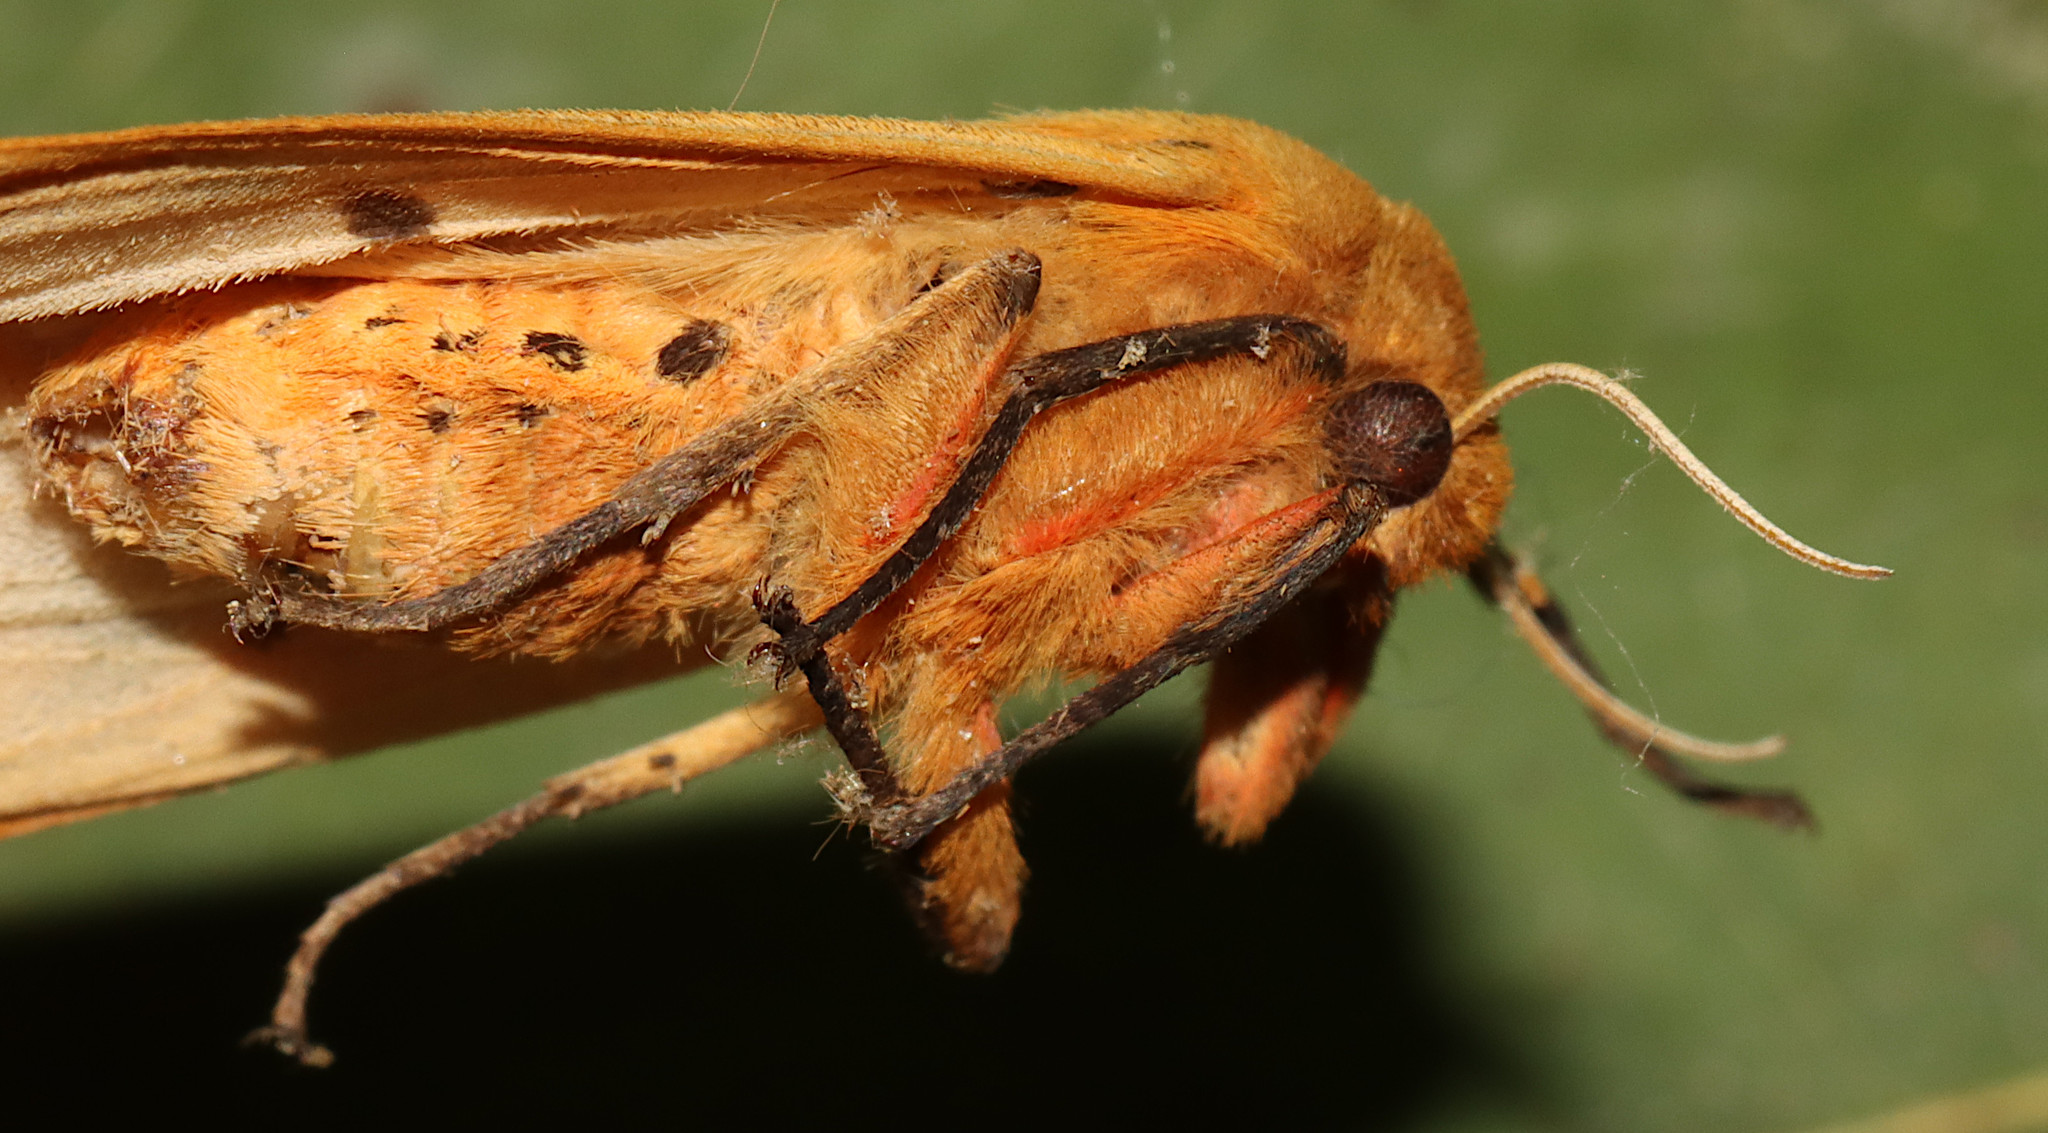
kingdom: Animalia
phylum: Arthropoda
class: Insecta
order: Lepidoptera
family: Erebidae
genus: Pyrrharctia
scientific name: Pyrrharctia isabella
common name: Isabella tiger moth
